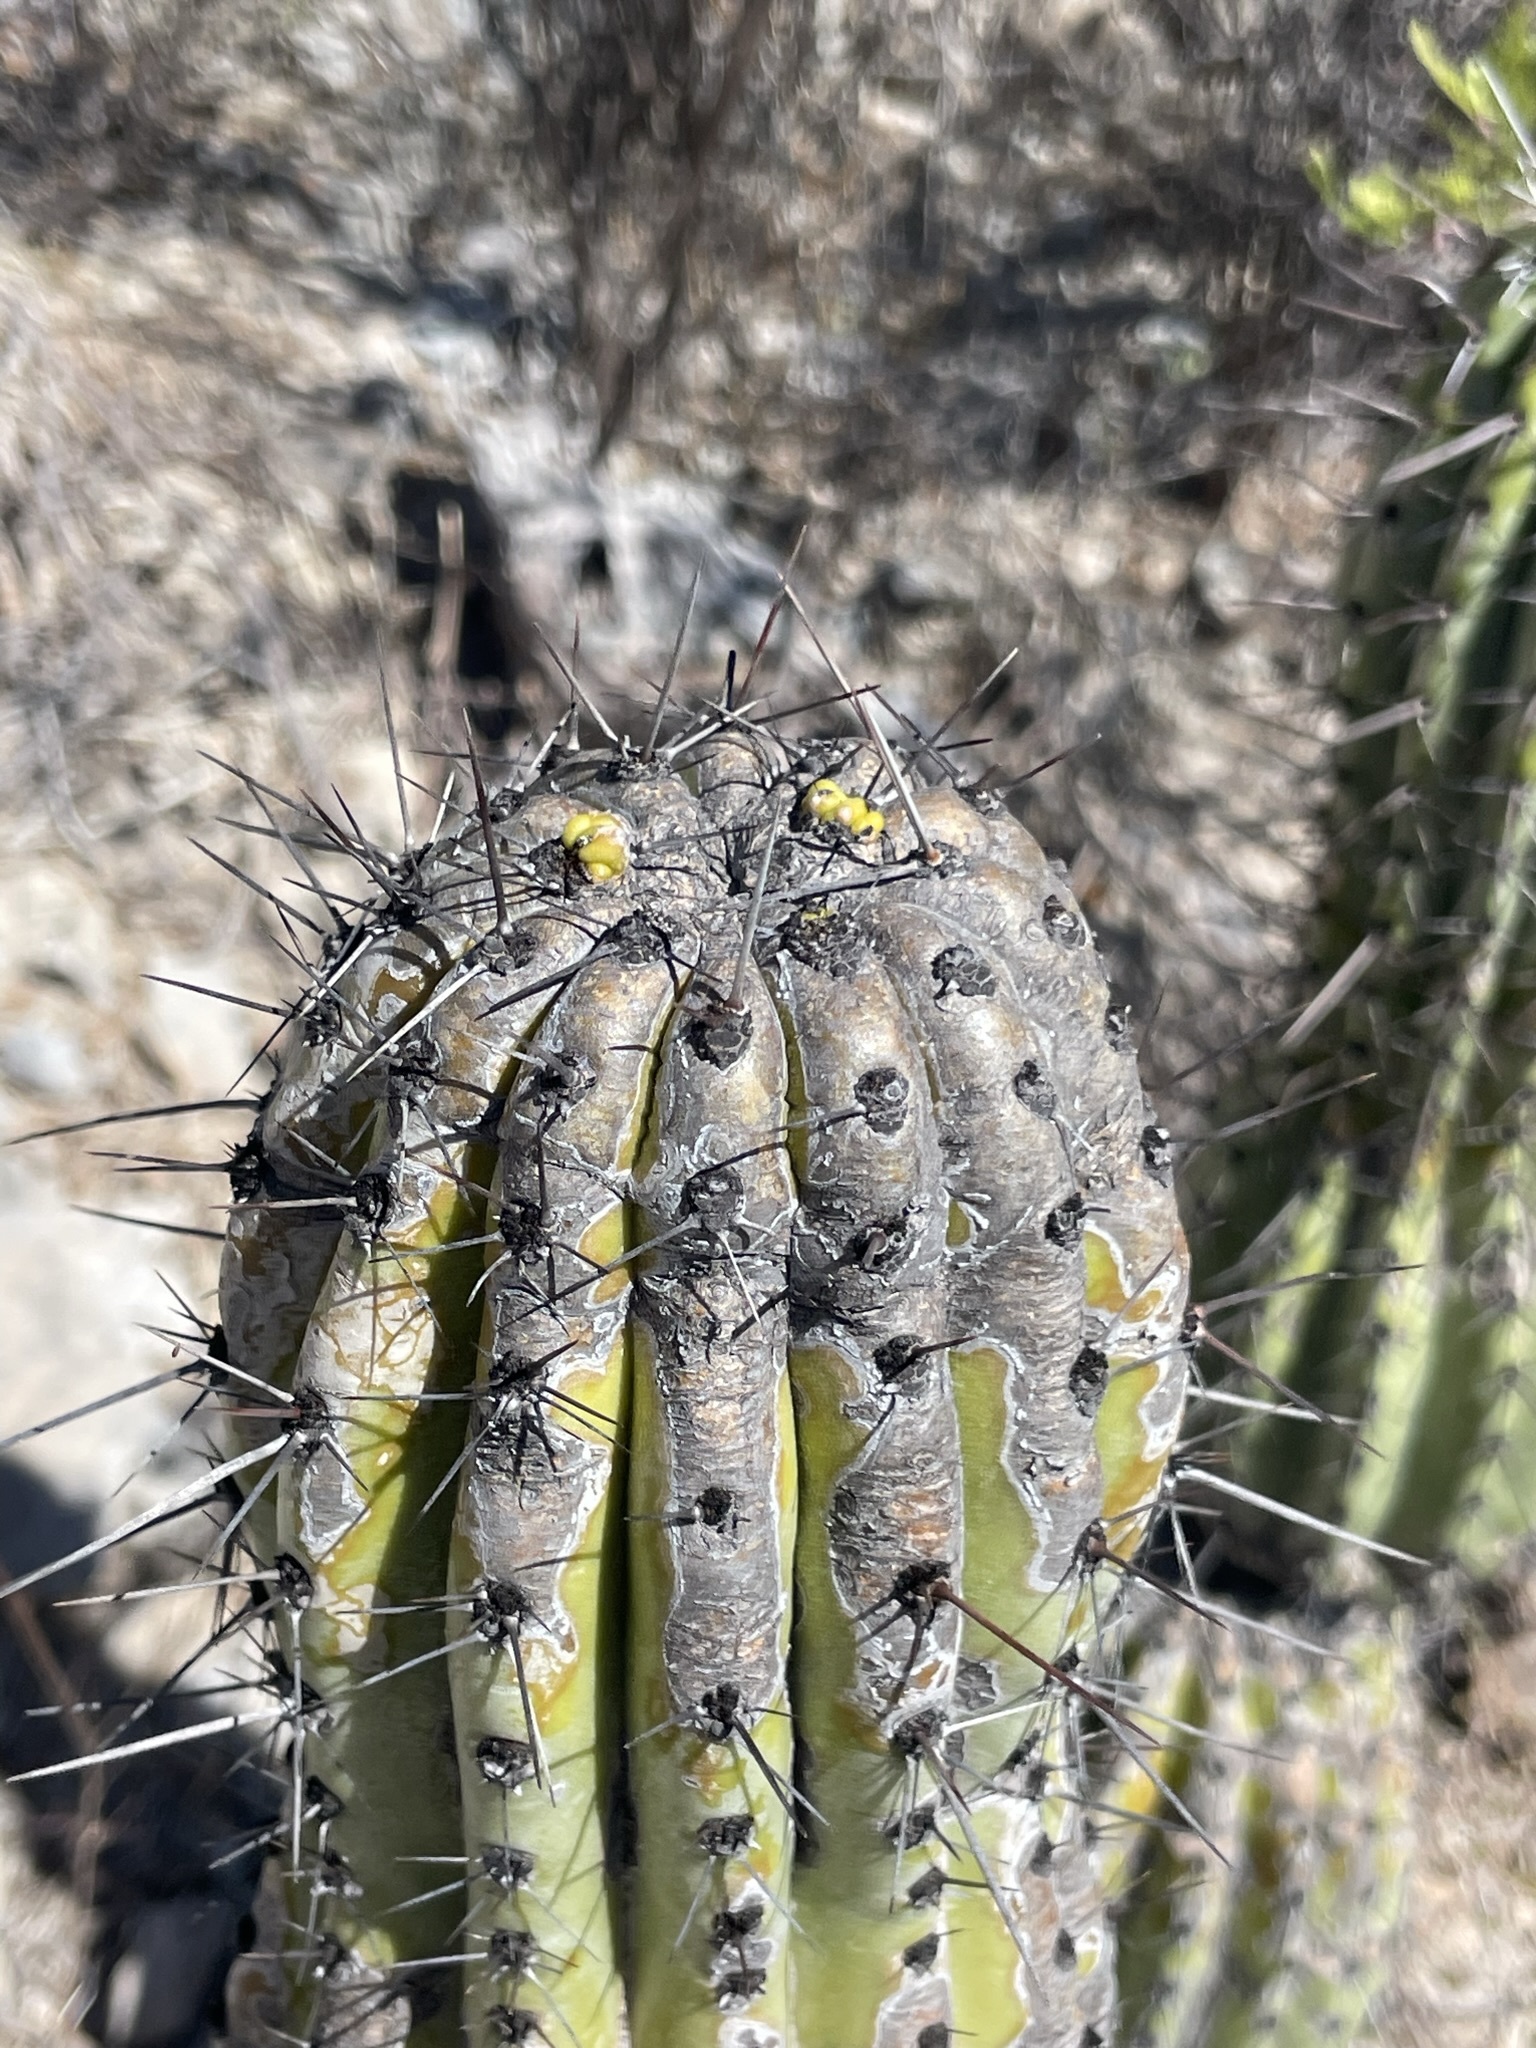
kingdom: Plantae
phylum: Tracheophyta
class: Magnoliopsida
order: Caryophyllales
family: Cactaceae
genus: Stenocereus
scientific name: Stenocereus thurberi
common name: Organ pipe cactus
